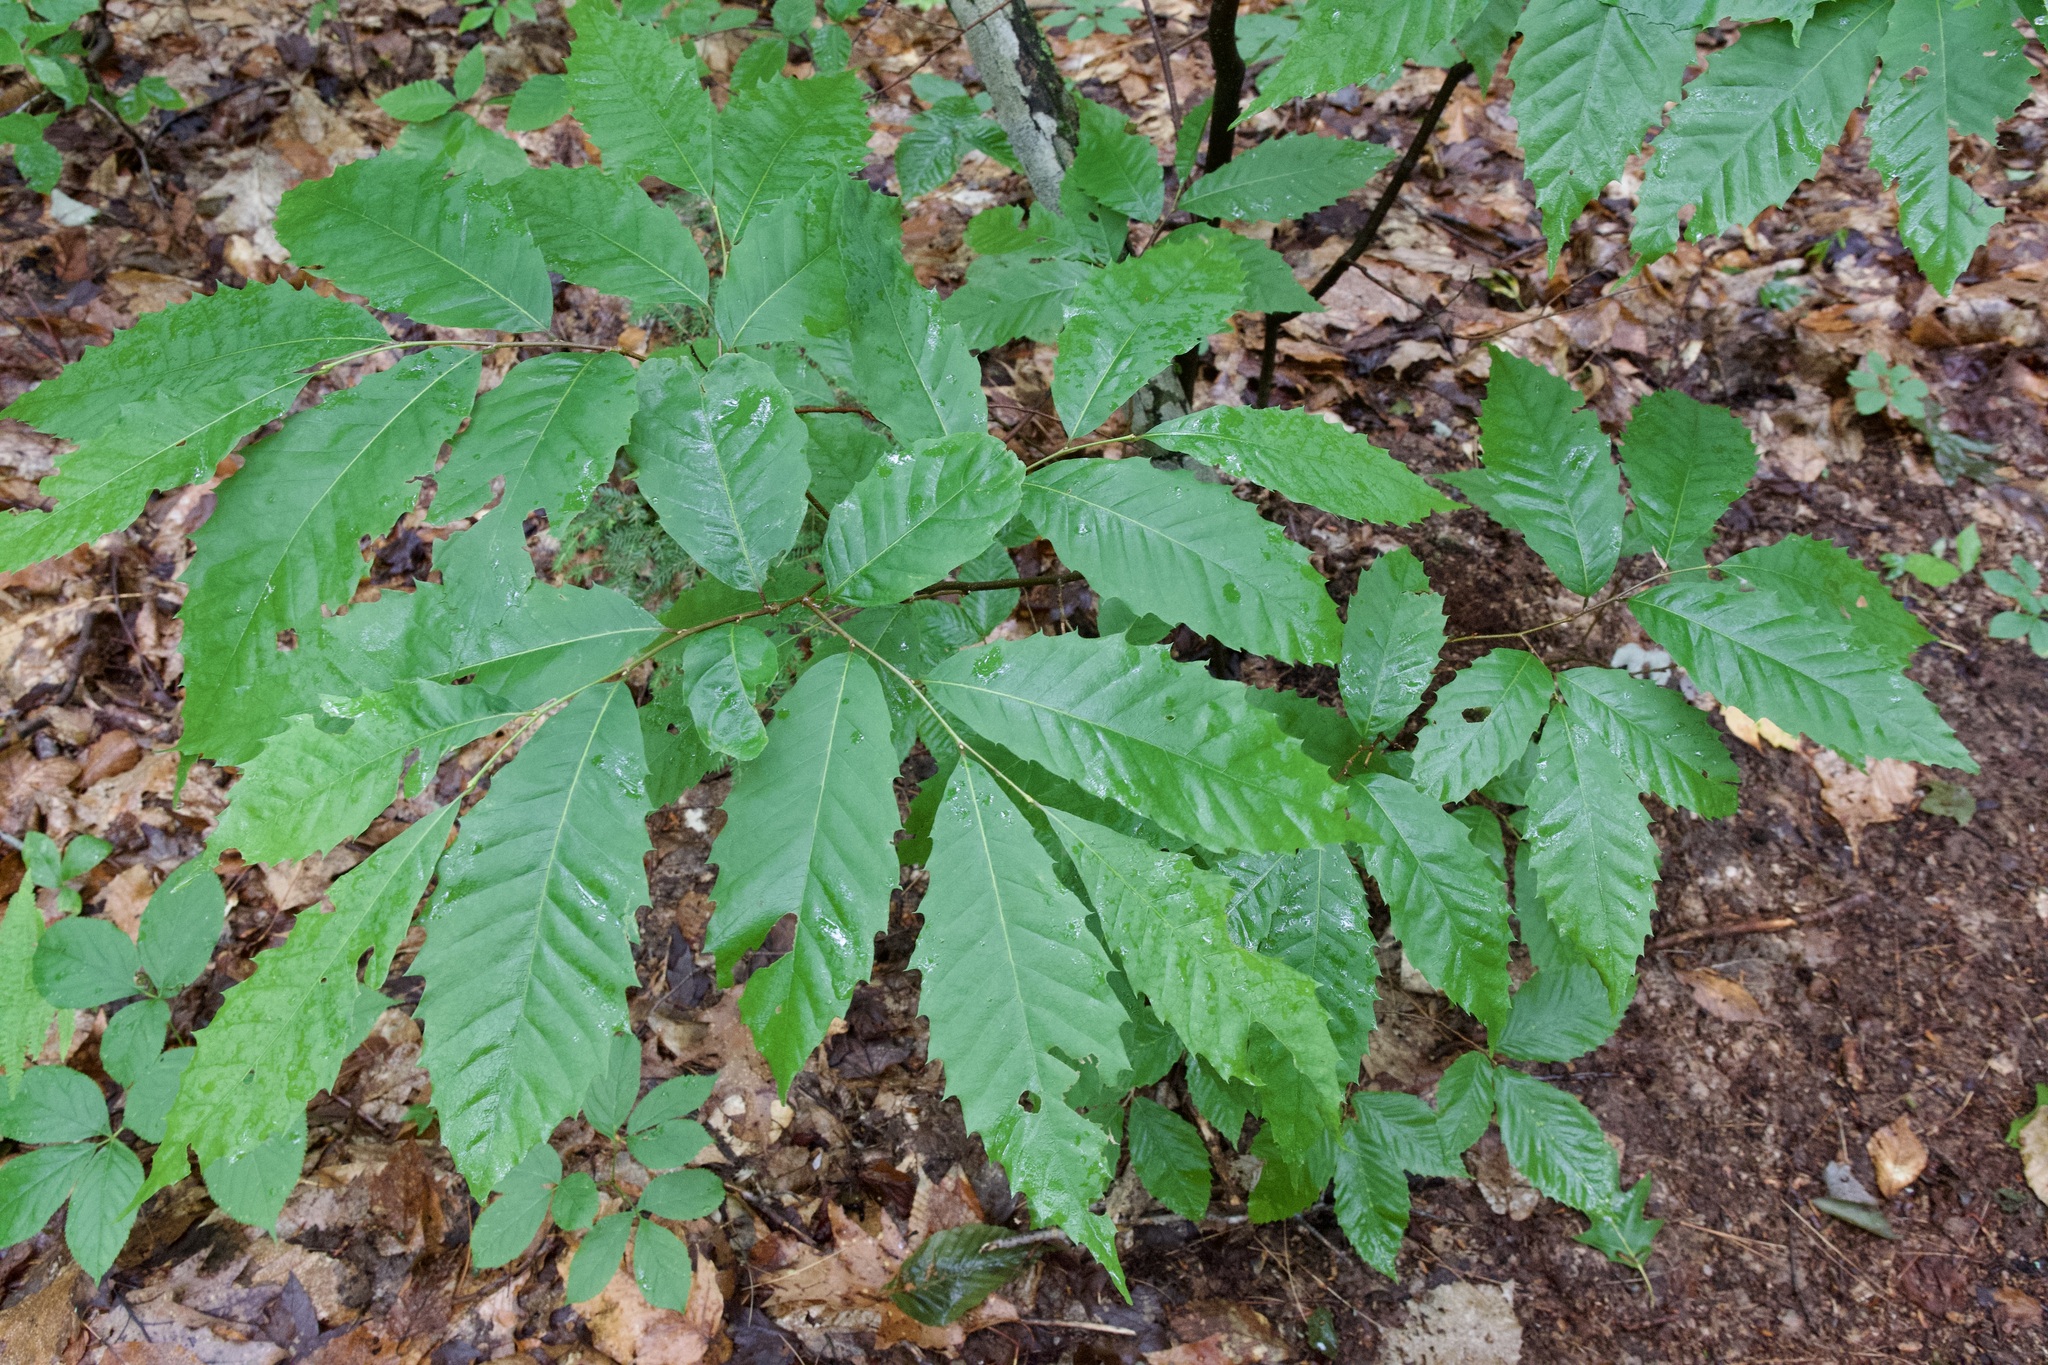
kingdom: Plantae
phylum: Tracheophyta
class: Magnoliopsida
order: Fagales
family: Fagaceae
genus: Castanea
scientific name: Castanea dentata
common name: American chestnut
